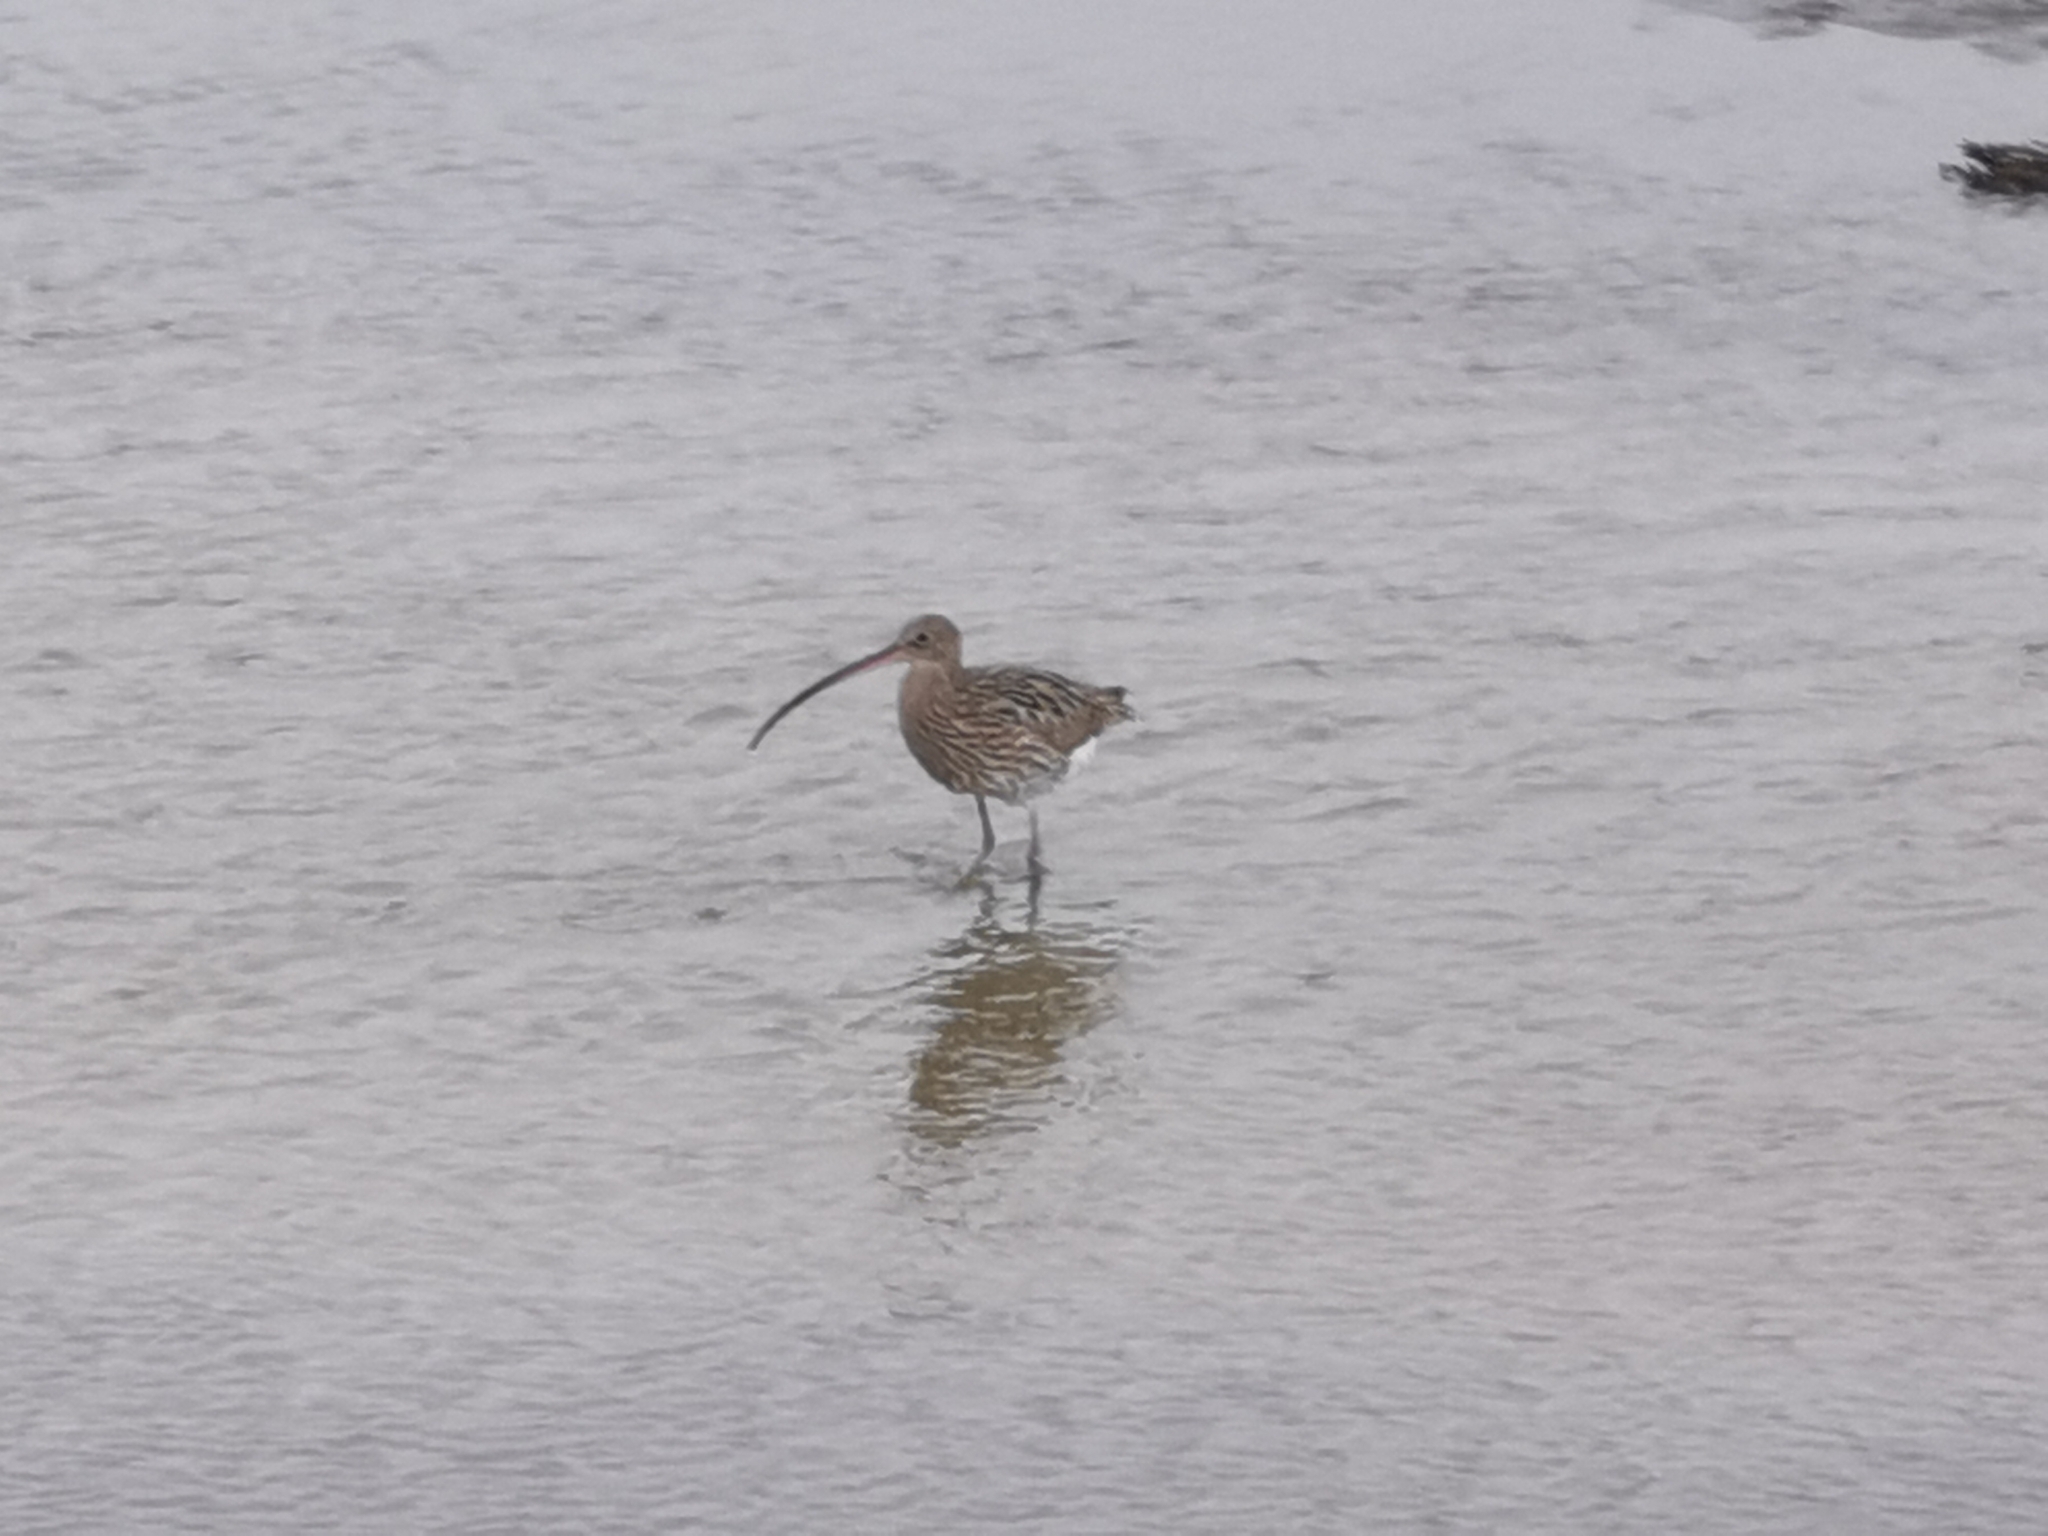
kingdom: Animalia
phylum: Chordata
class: Aves
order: Charadriiformes
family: Scolopacidae
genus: Numenius
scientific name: Numenius arquata
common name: Eurasian curlew
